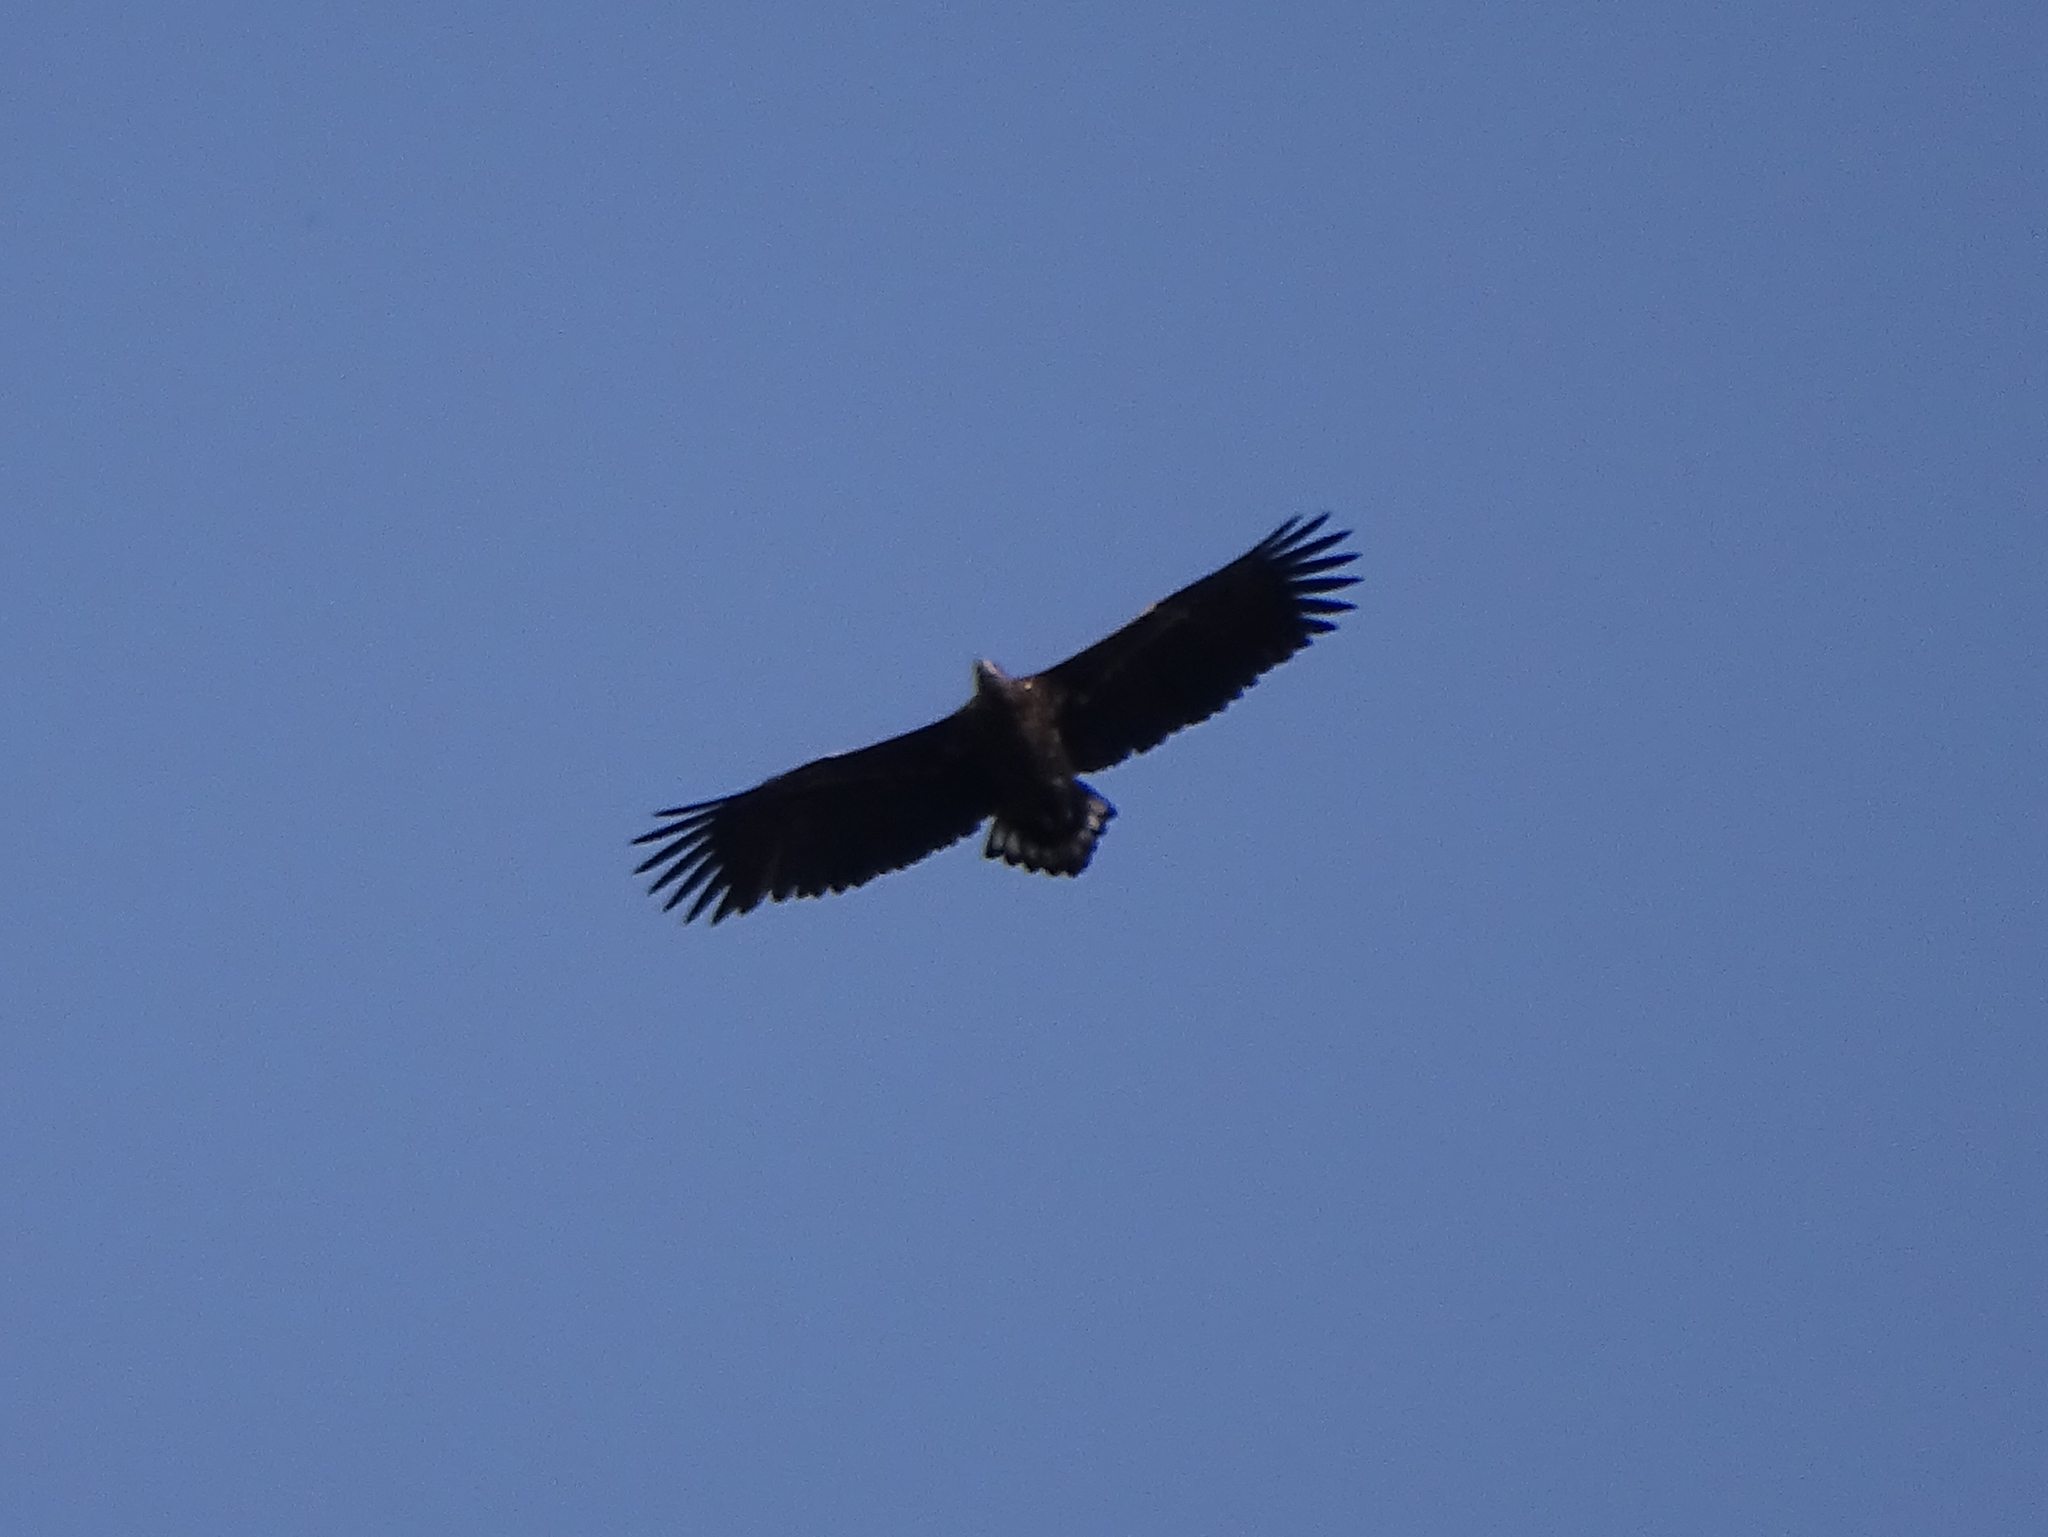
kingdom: Animalia
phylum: Chordata
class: Aves
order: Accipitriformes
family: Accipitridae
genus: Haliaeetus
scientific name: Haliaeetus albicilla
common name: White-tailed eagle
